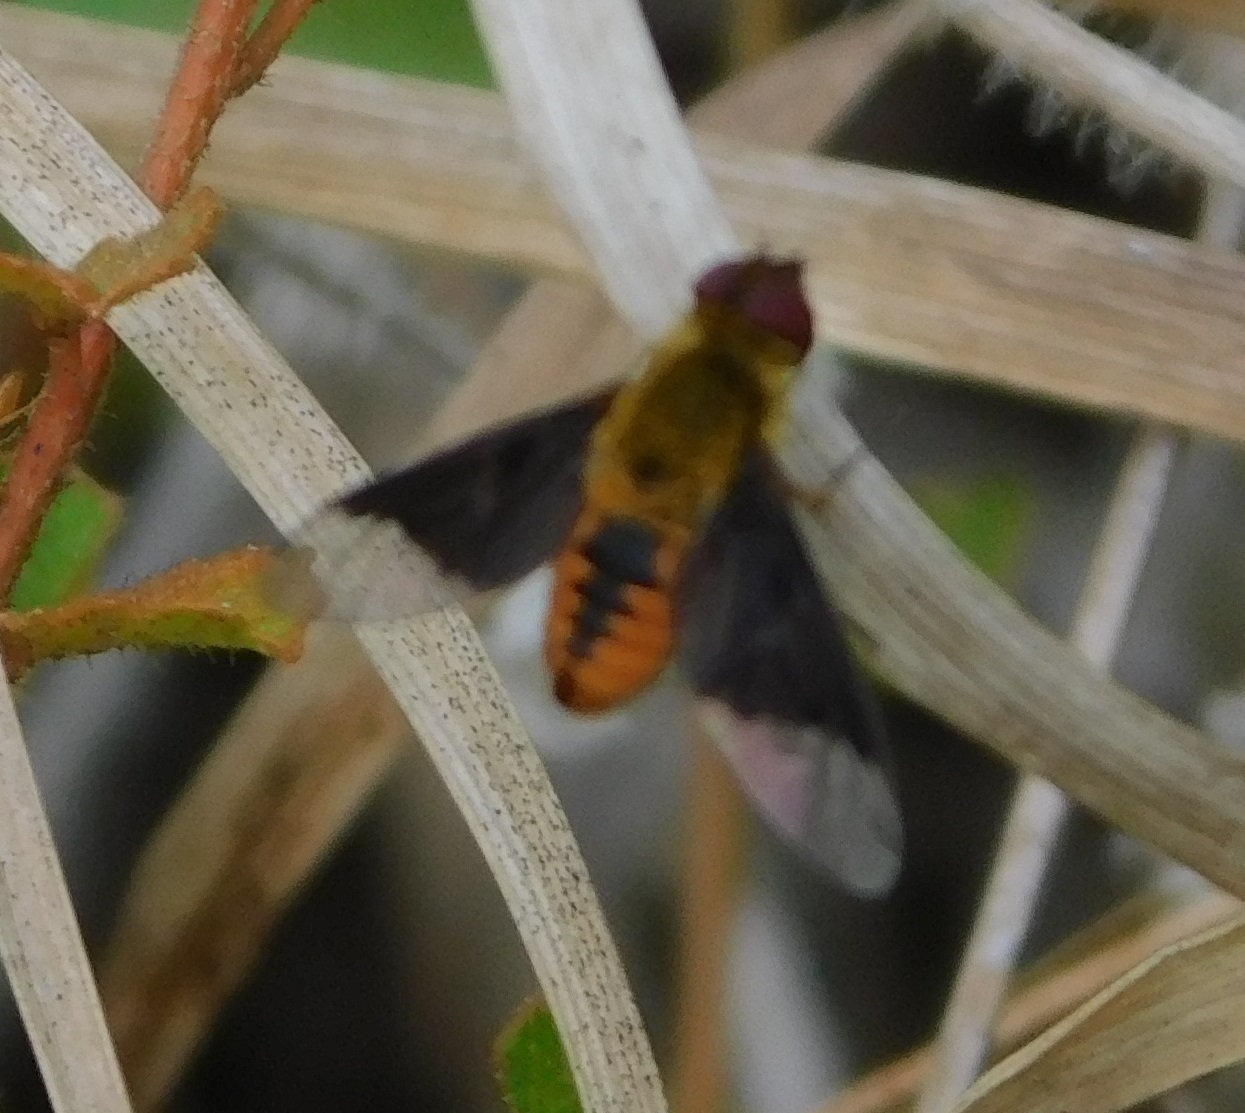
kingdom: Animalia
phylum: Arthropoda
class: Insecta
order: Diptera
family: Bombyliidae
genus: Chrysanthrax
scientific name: Chrysanthrax cypris
